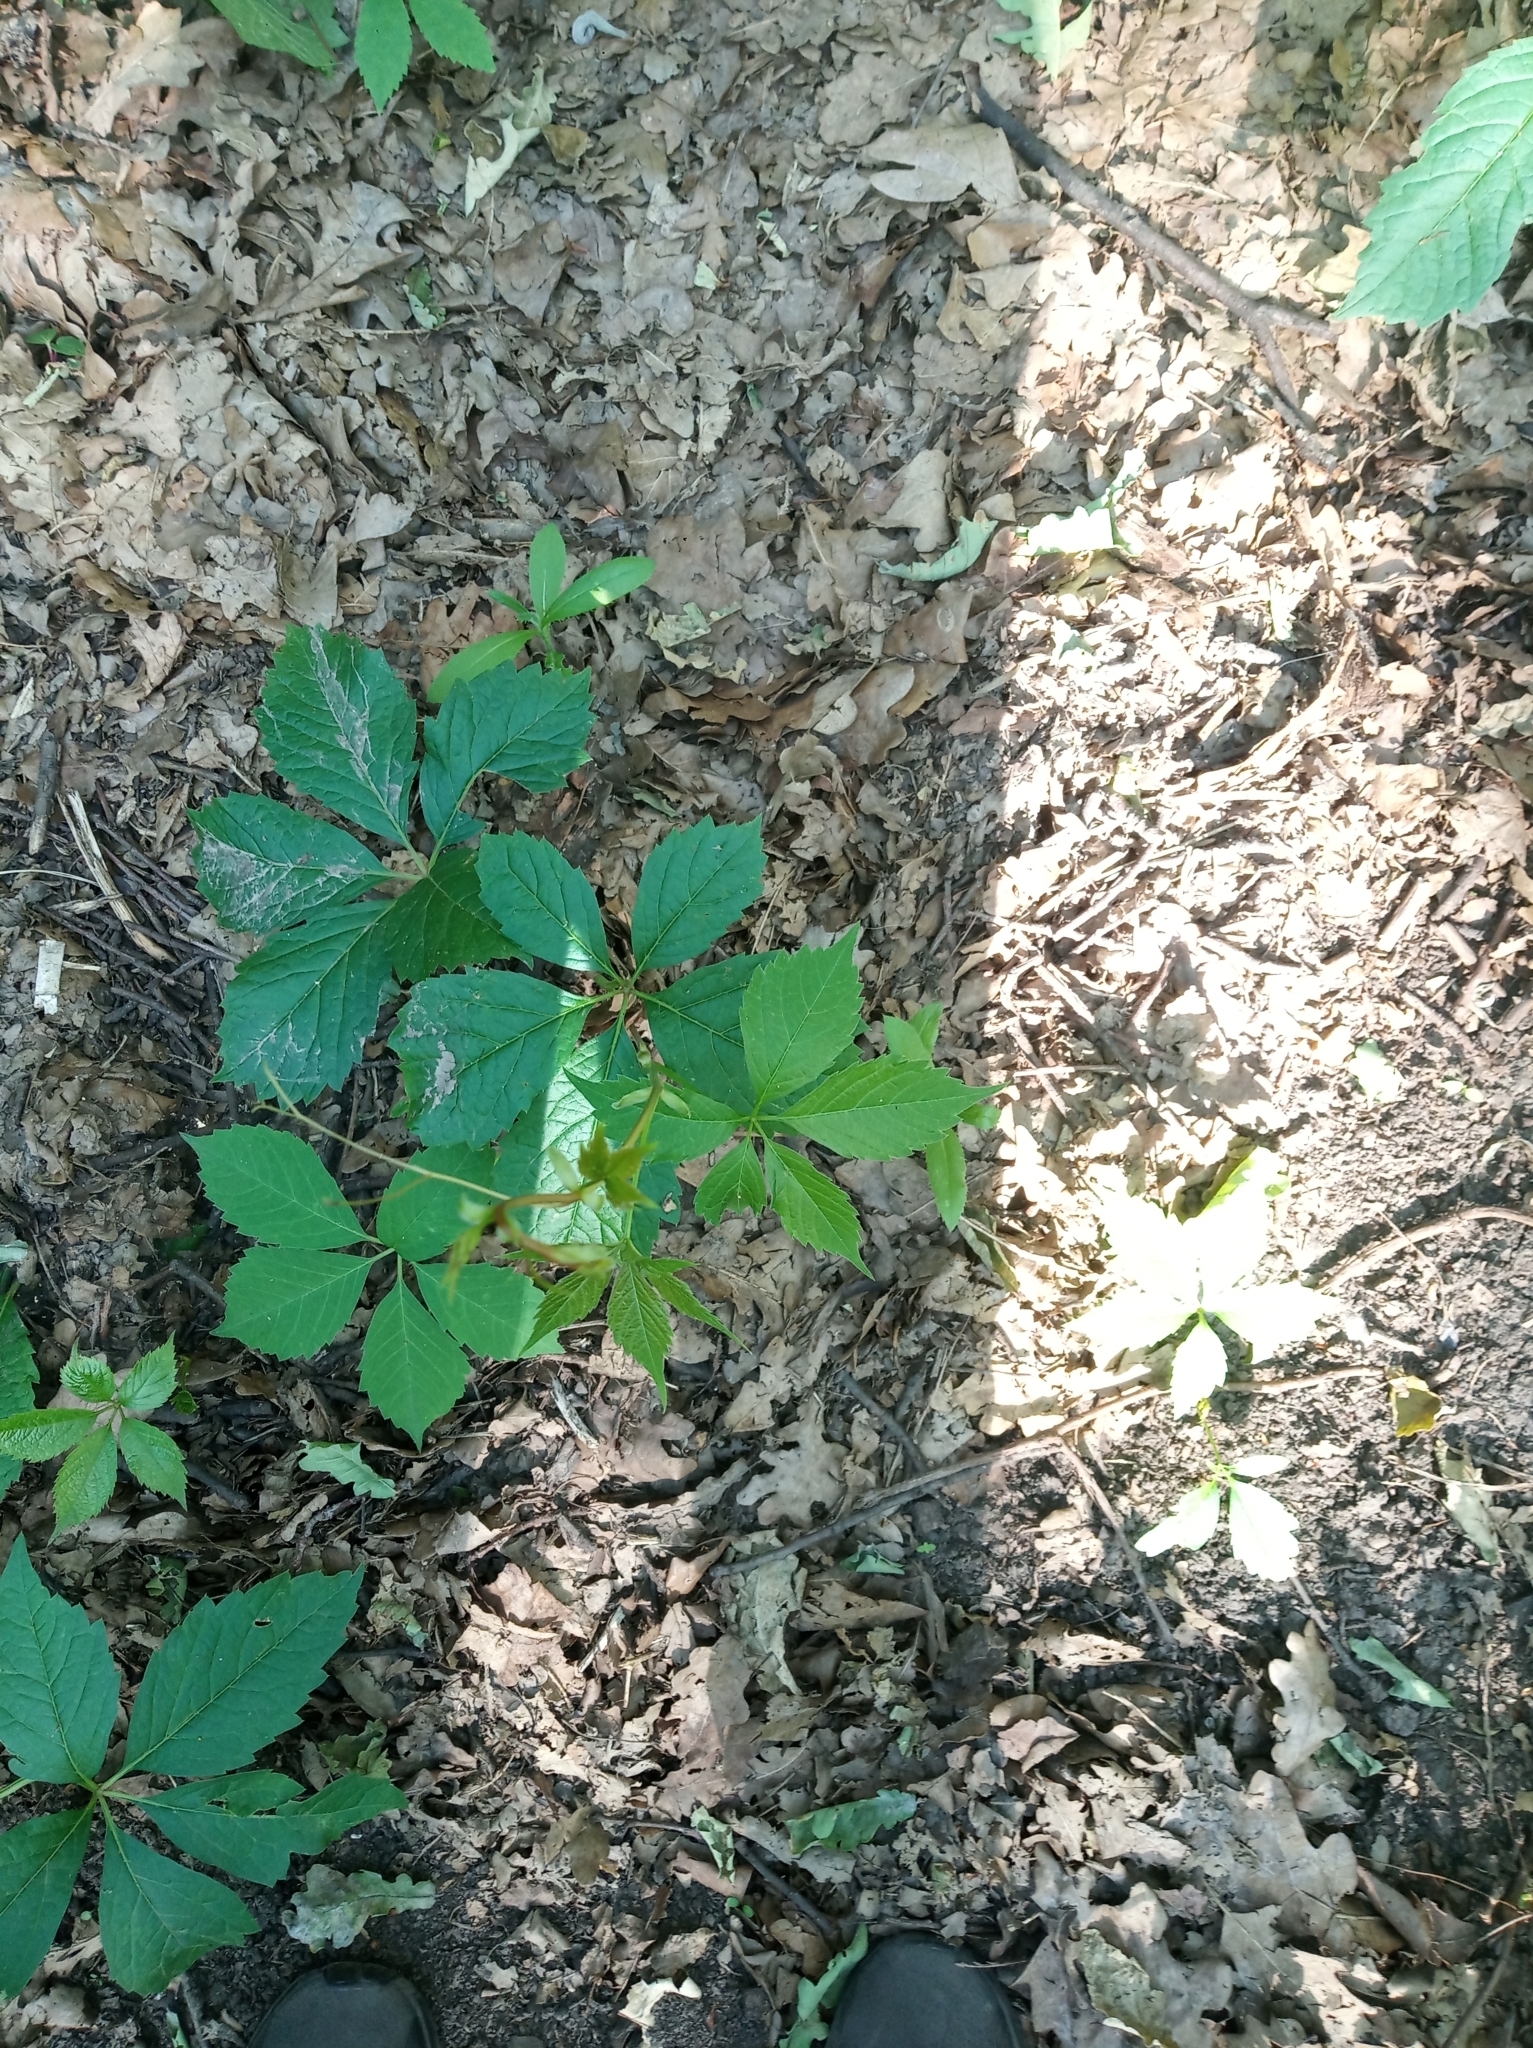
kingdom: Plantae
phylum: Tracheophyta
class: Magnoliopsida
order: Vitales
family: Vitaceae
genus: Parthenocissus
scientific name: Parthenocissus inserta
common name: False virginia-creeper
